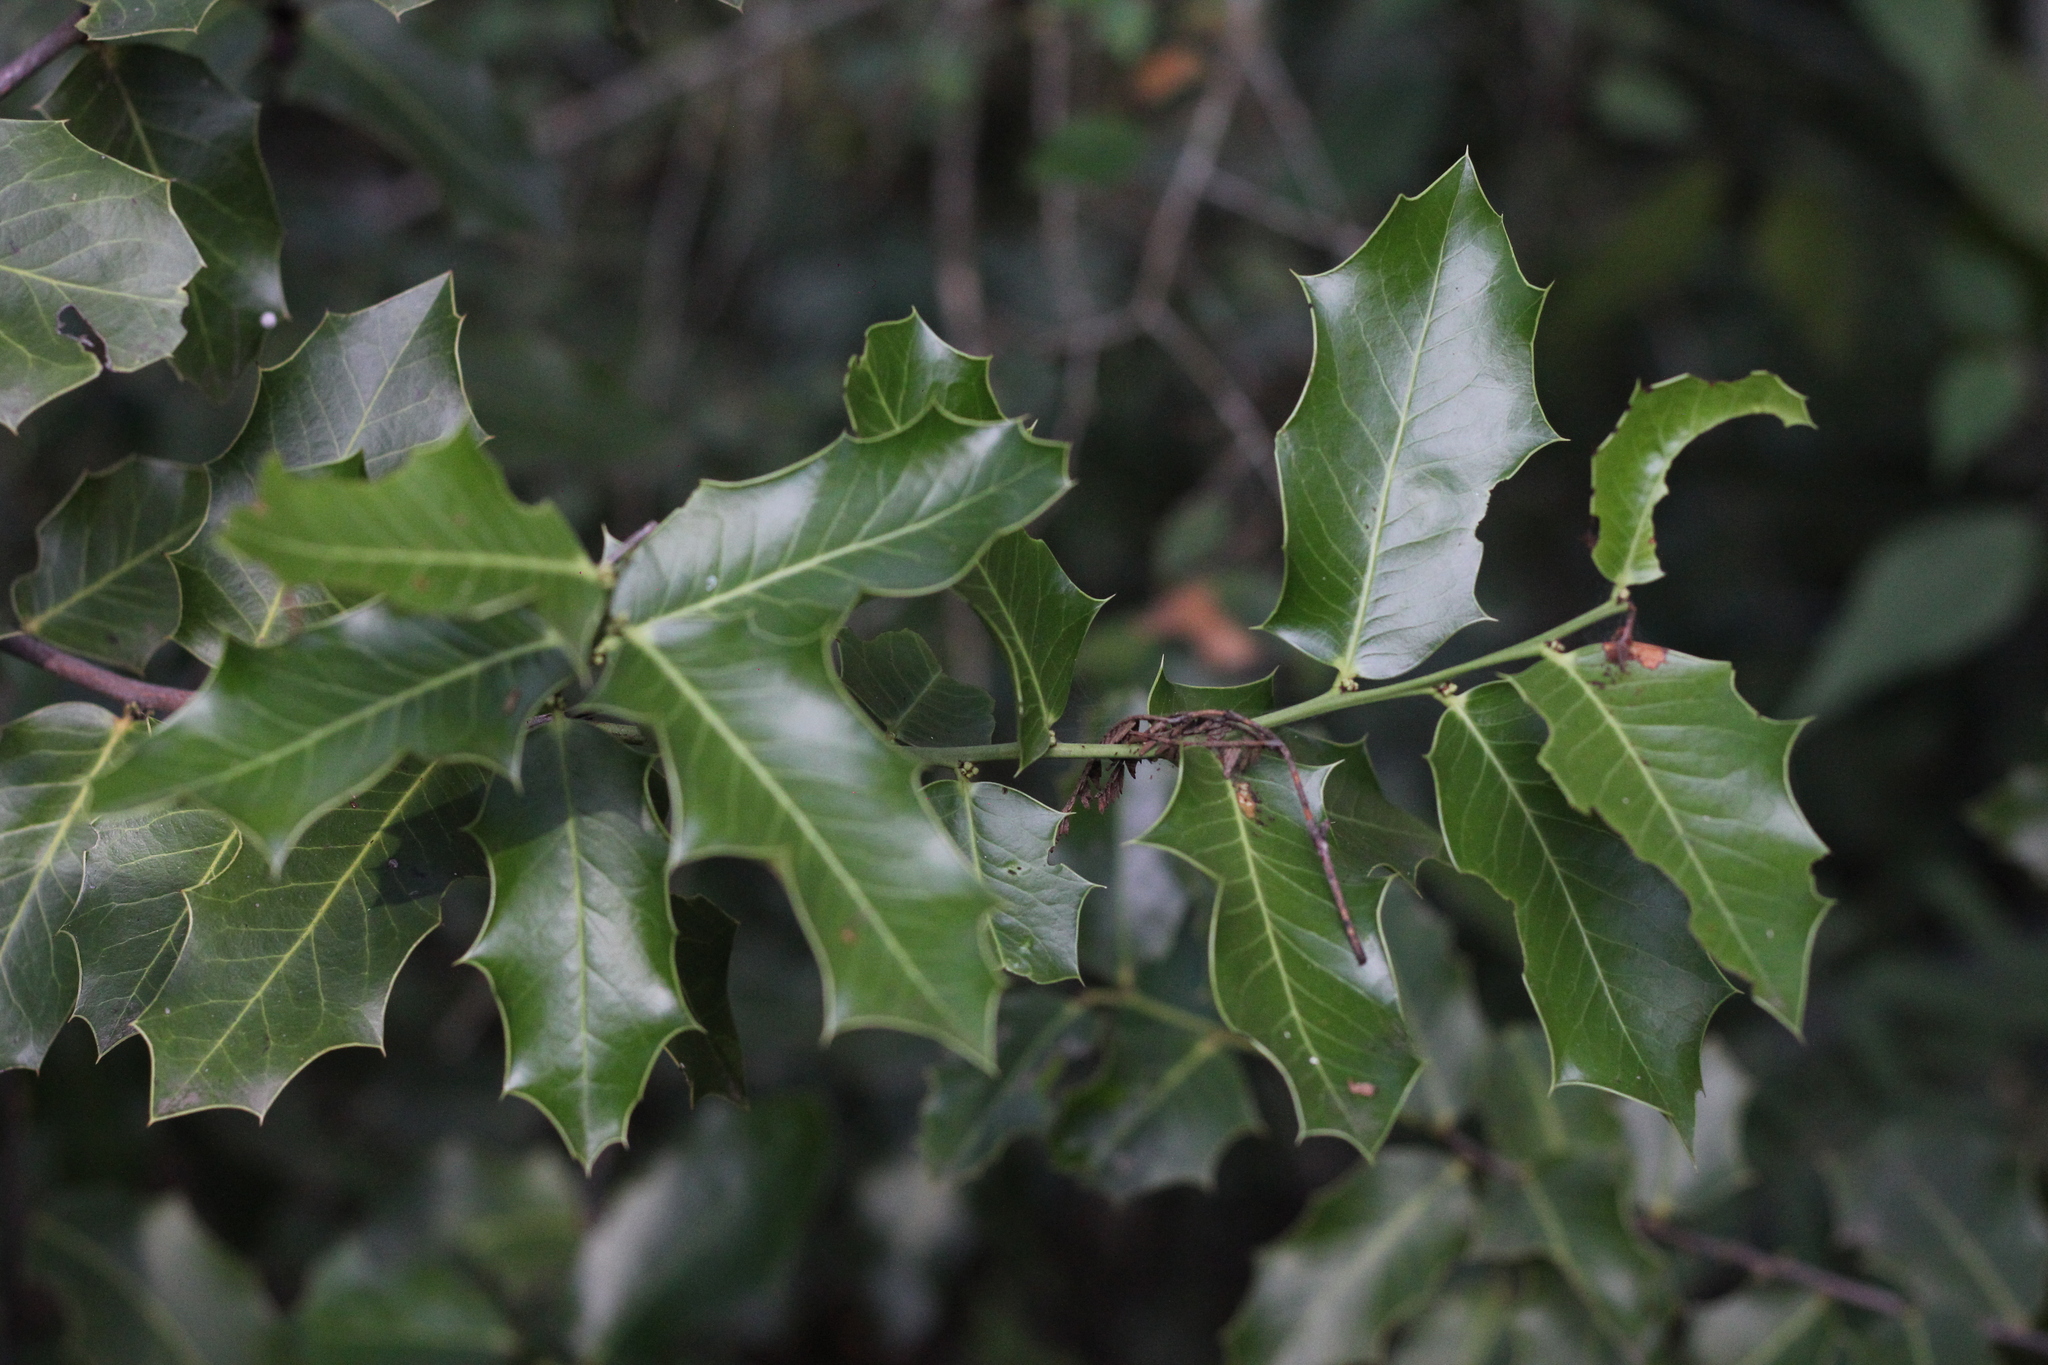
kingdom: Plantae
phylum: Tracheophyta
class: Magnoliopsida
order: Celastrales
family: Celastraceae
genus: Monteverdia
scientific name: Monteverdia
